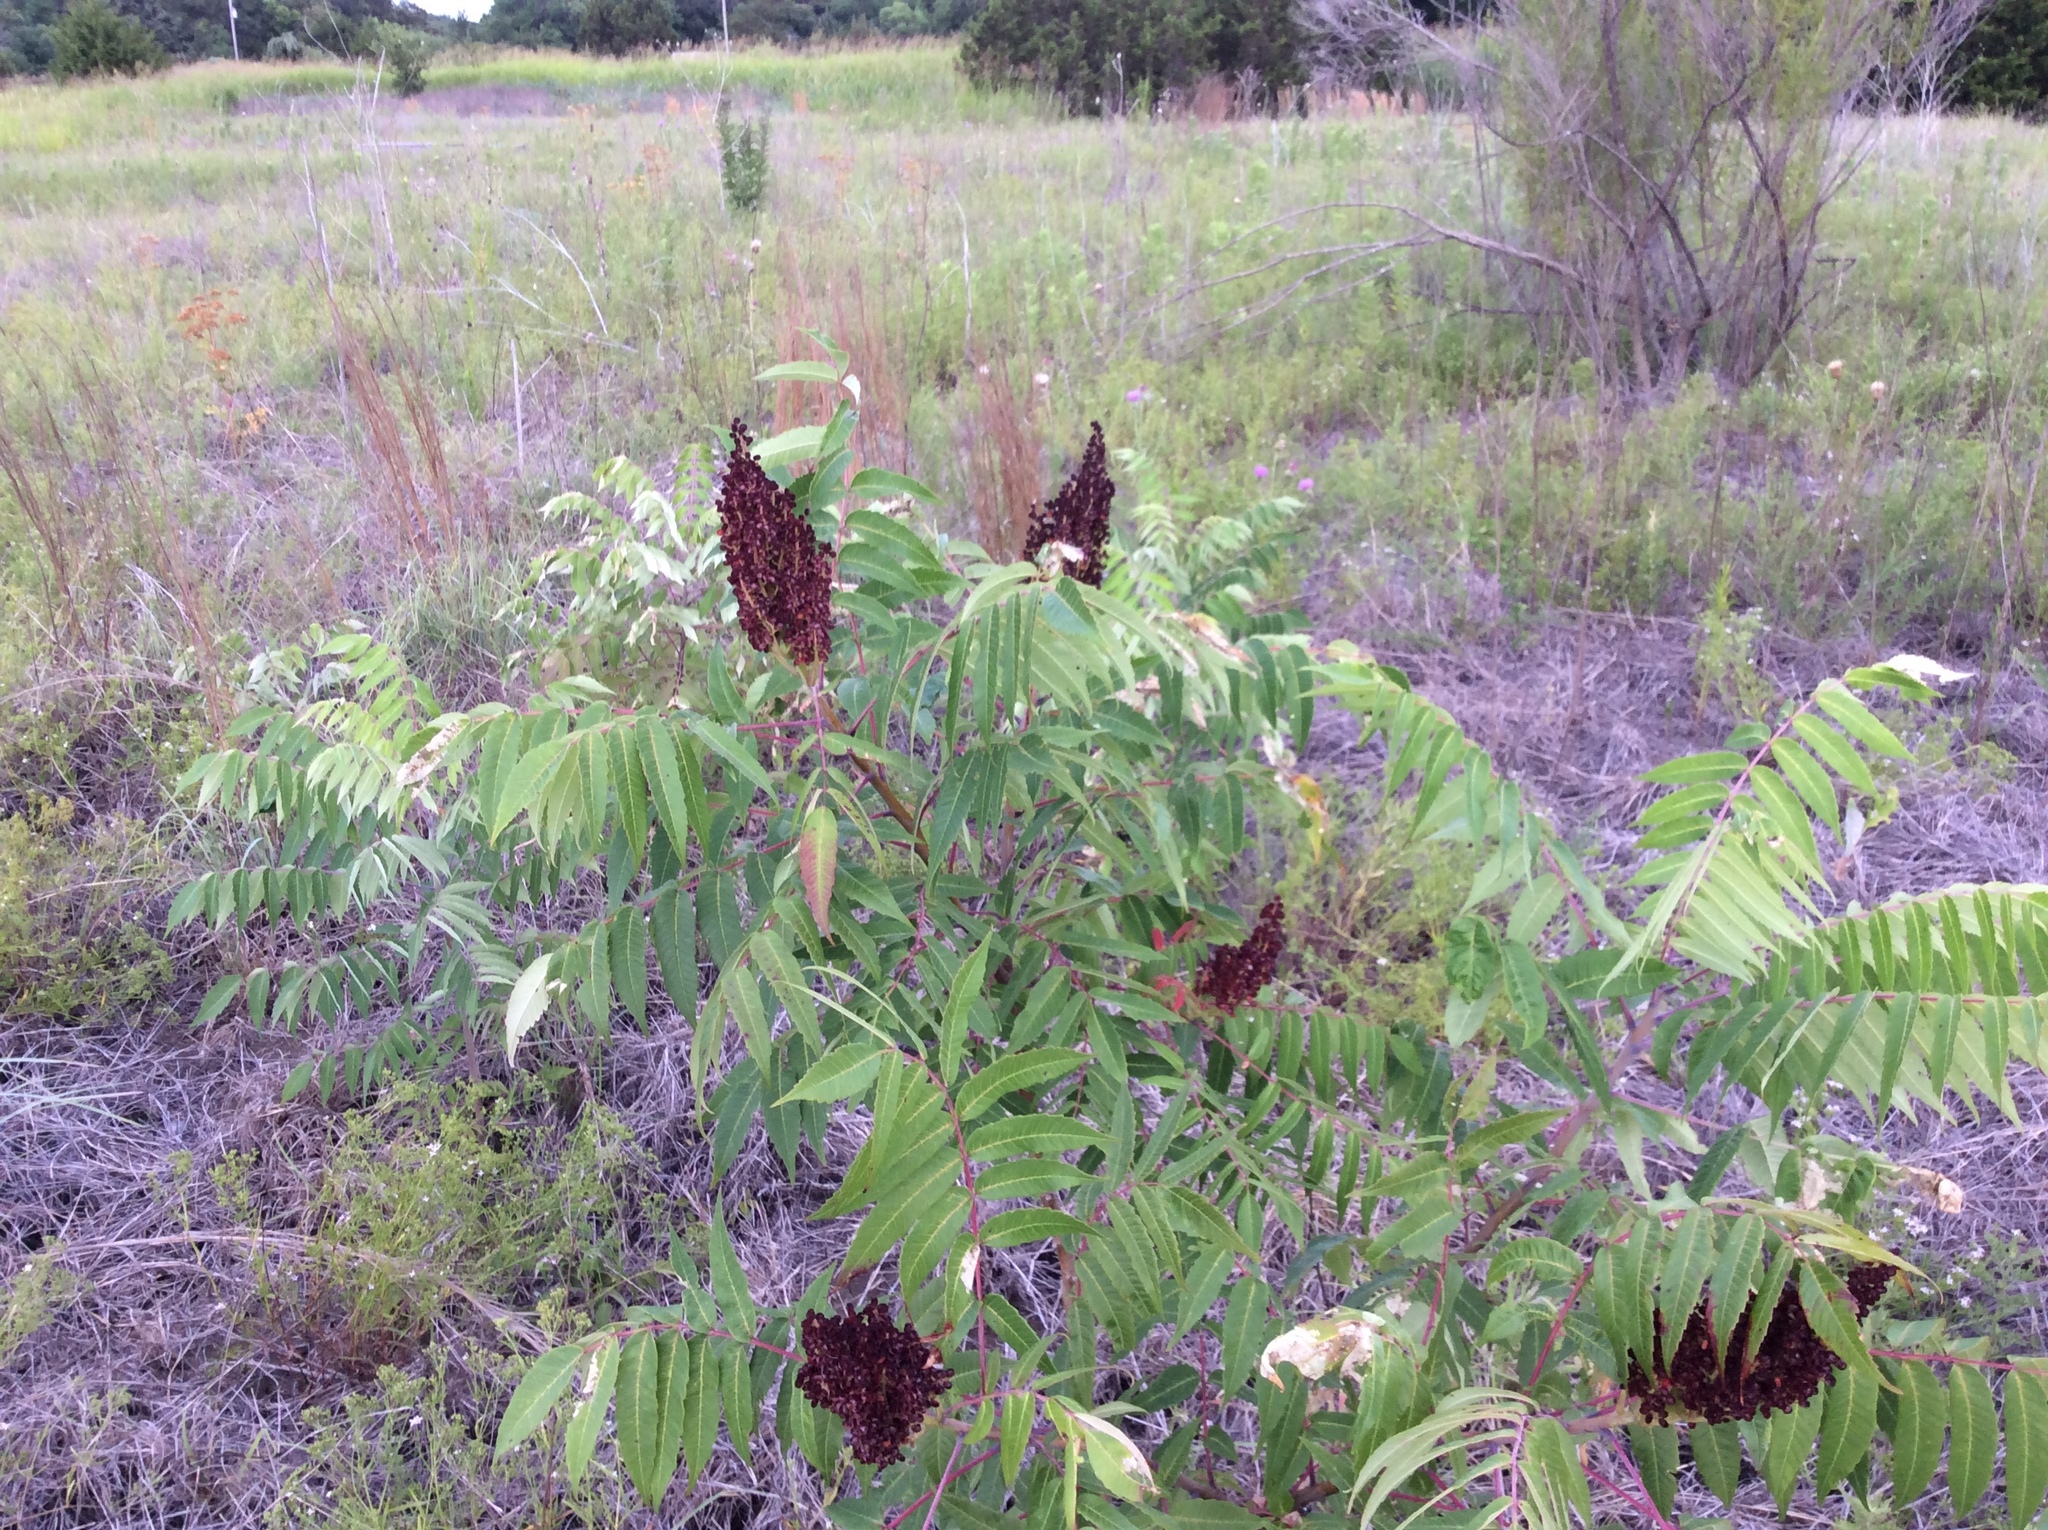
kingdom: Plantae
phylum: Tracheophyta
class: Magnoliopsida
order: Sapindales
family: Anacardiaceae
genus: Rhus
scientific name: Rhus glabra
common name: Scarlet sumac
